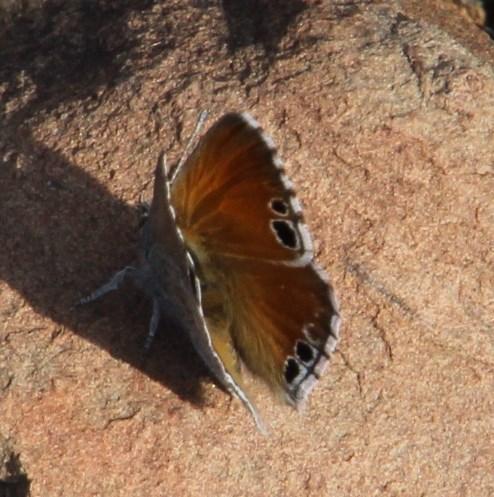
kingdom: Animalia
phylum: Arthropoda
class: Insecta
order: Lepidoptera
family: Lycaenidae
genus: Leptomyrina
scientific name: Leptomyrina lara
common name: Cape black-eye
